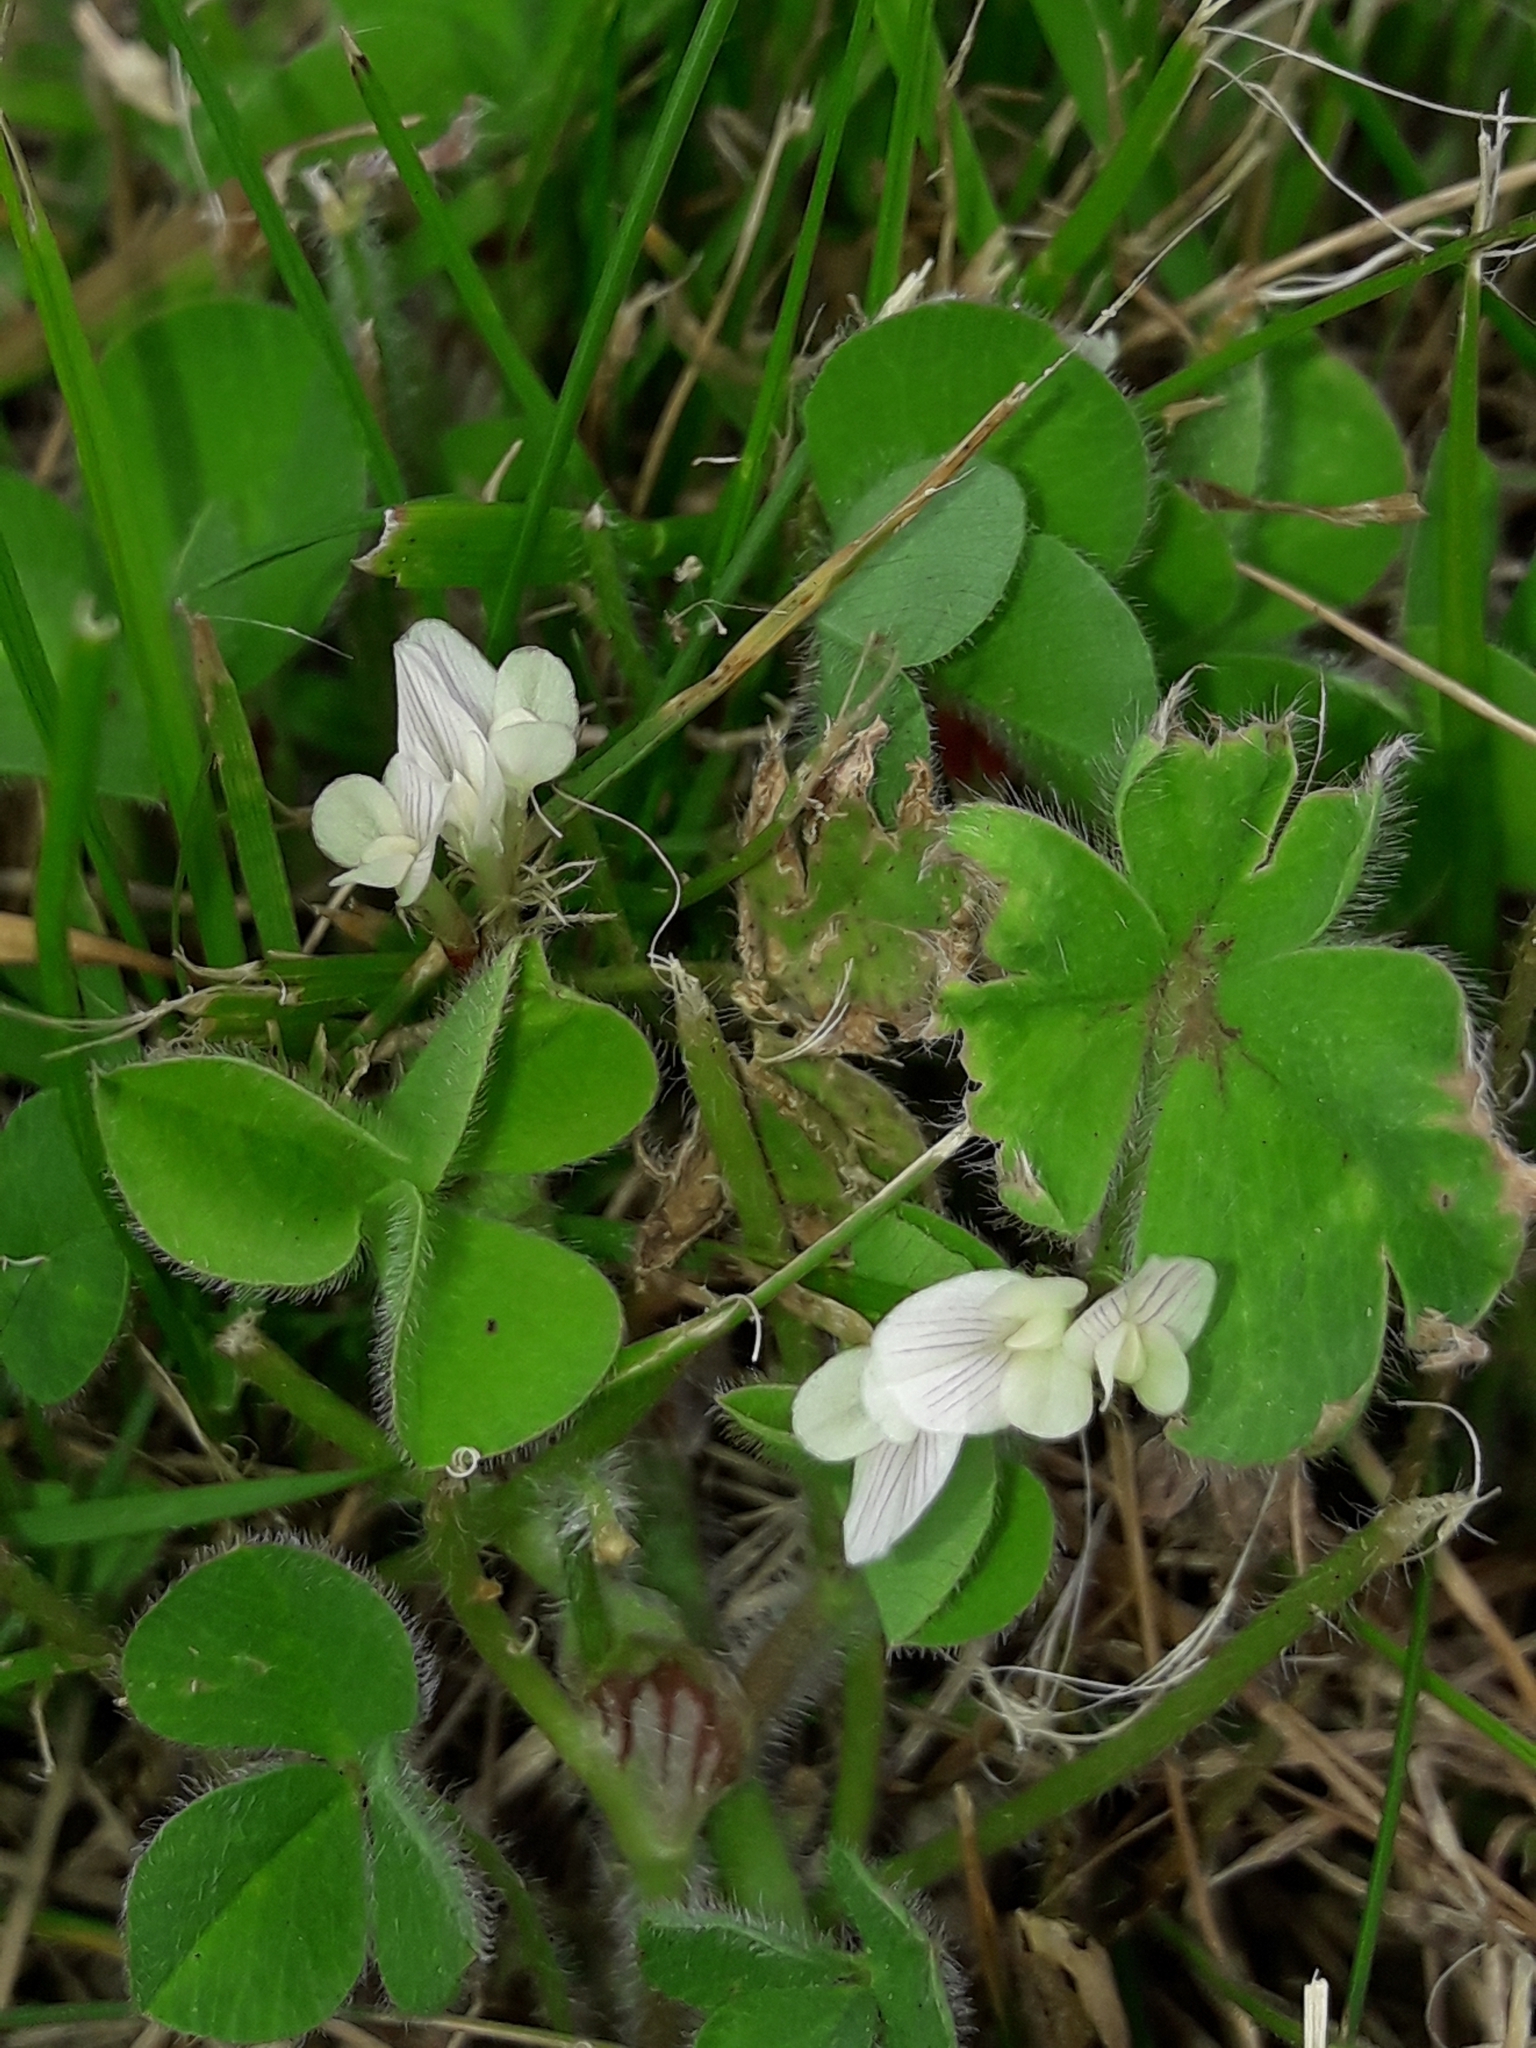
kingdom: Plantae
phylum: Tracheophyta
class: Magnoliopsida
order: Fabales
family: Fabaceae
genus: Trifolium
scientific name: Trifolium subterraneum
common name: Subterranean clover
